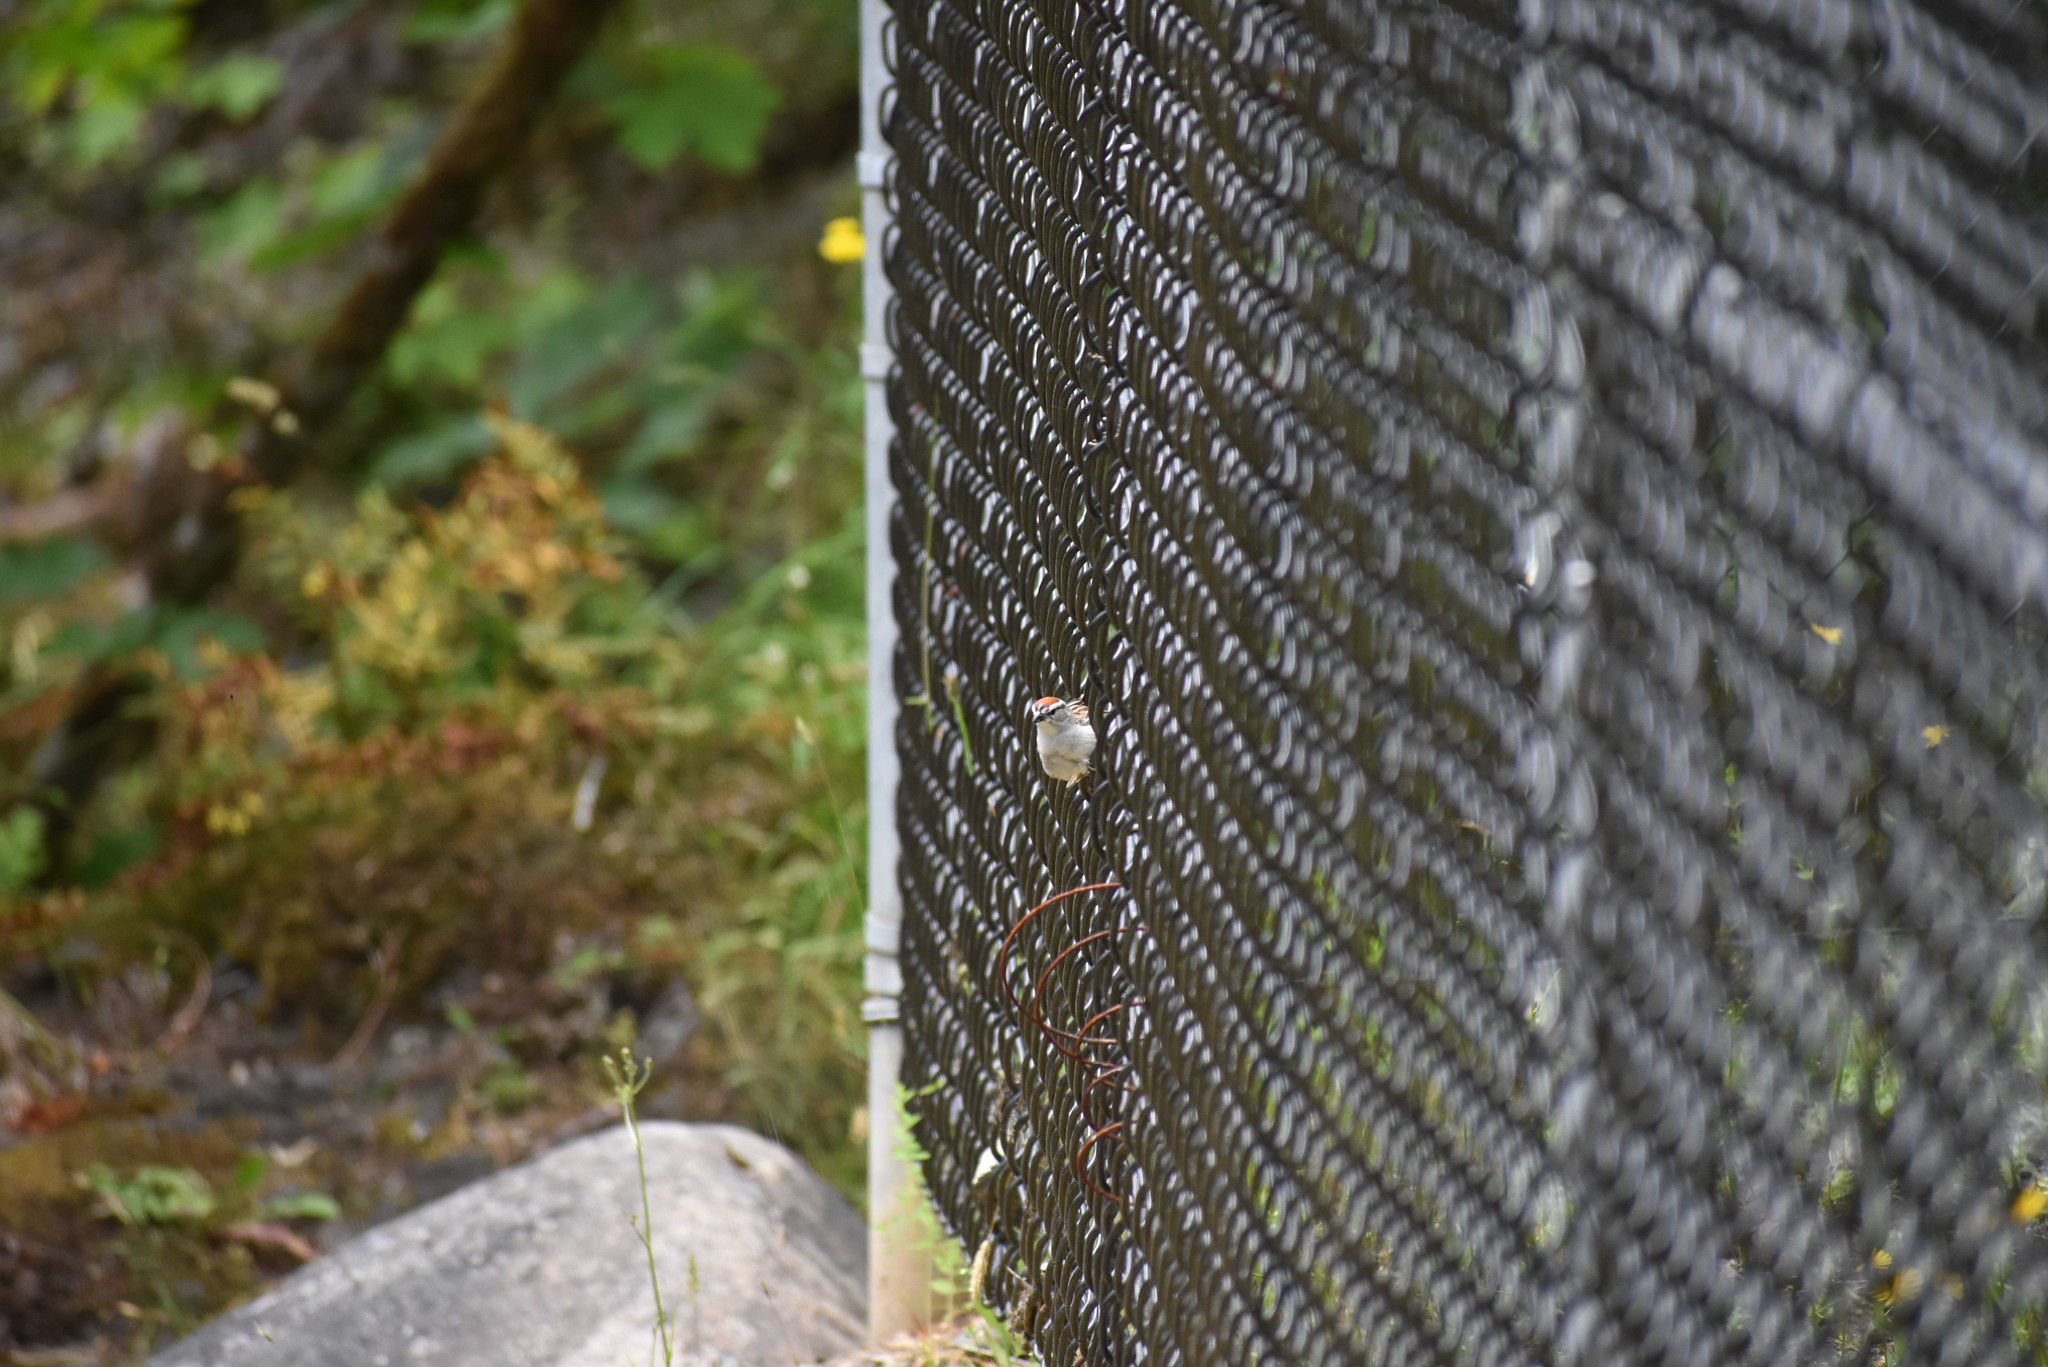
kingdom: Animalia
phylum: Chordata
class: Aves
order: Passeriformes
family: Passerellidae
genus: Spizella
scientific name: Spizella passerina
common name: Chipping sparrow
